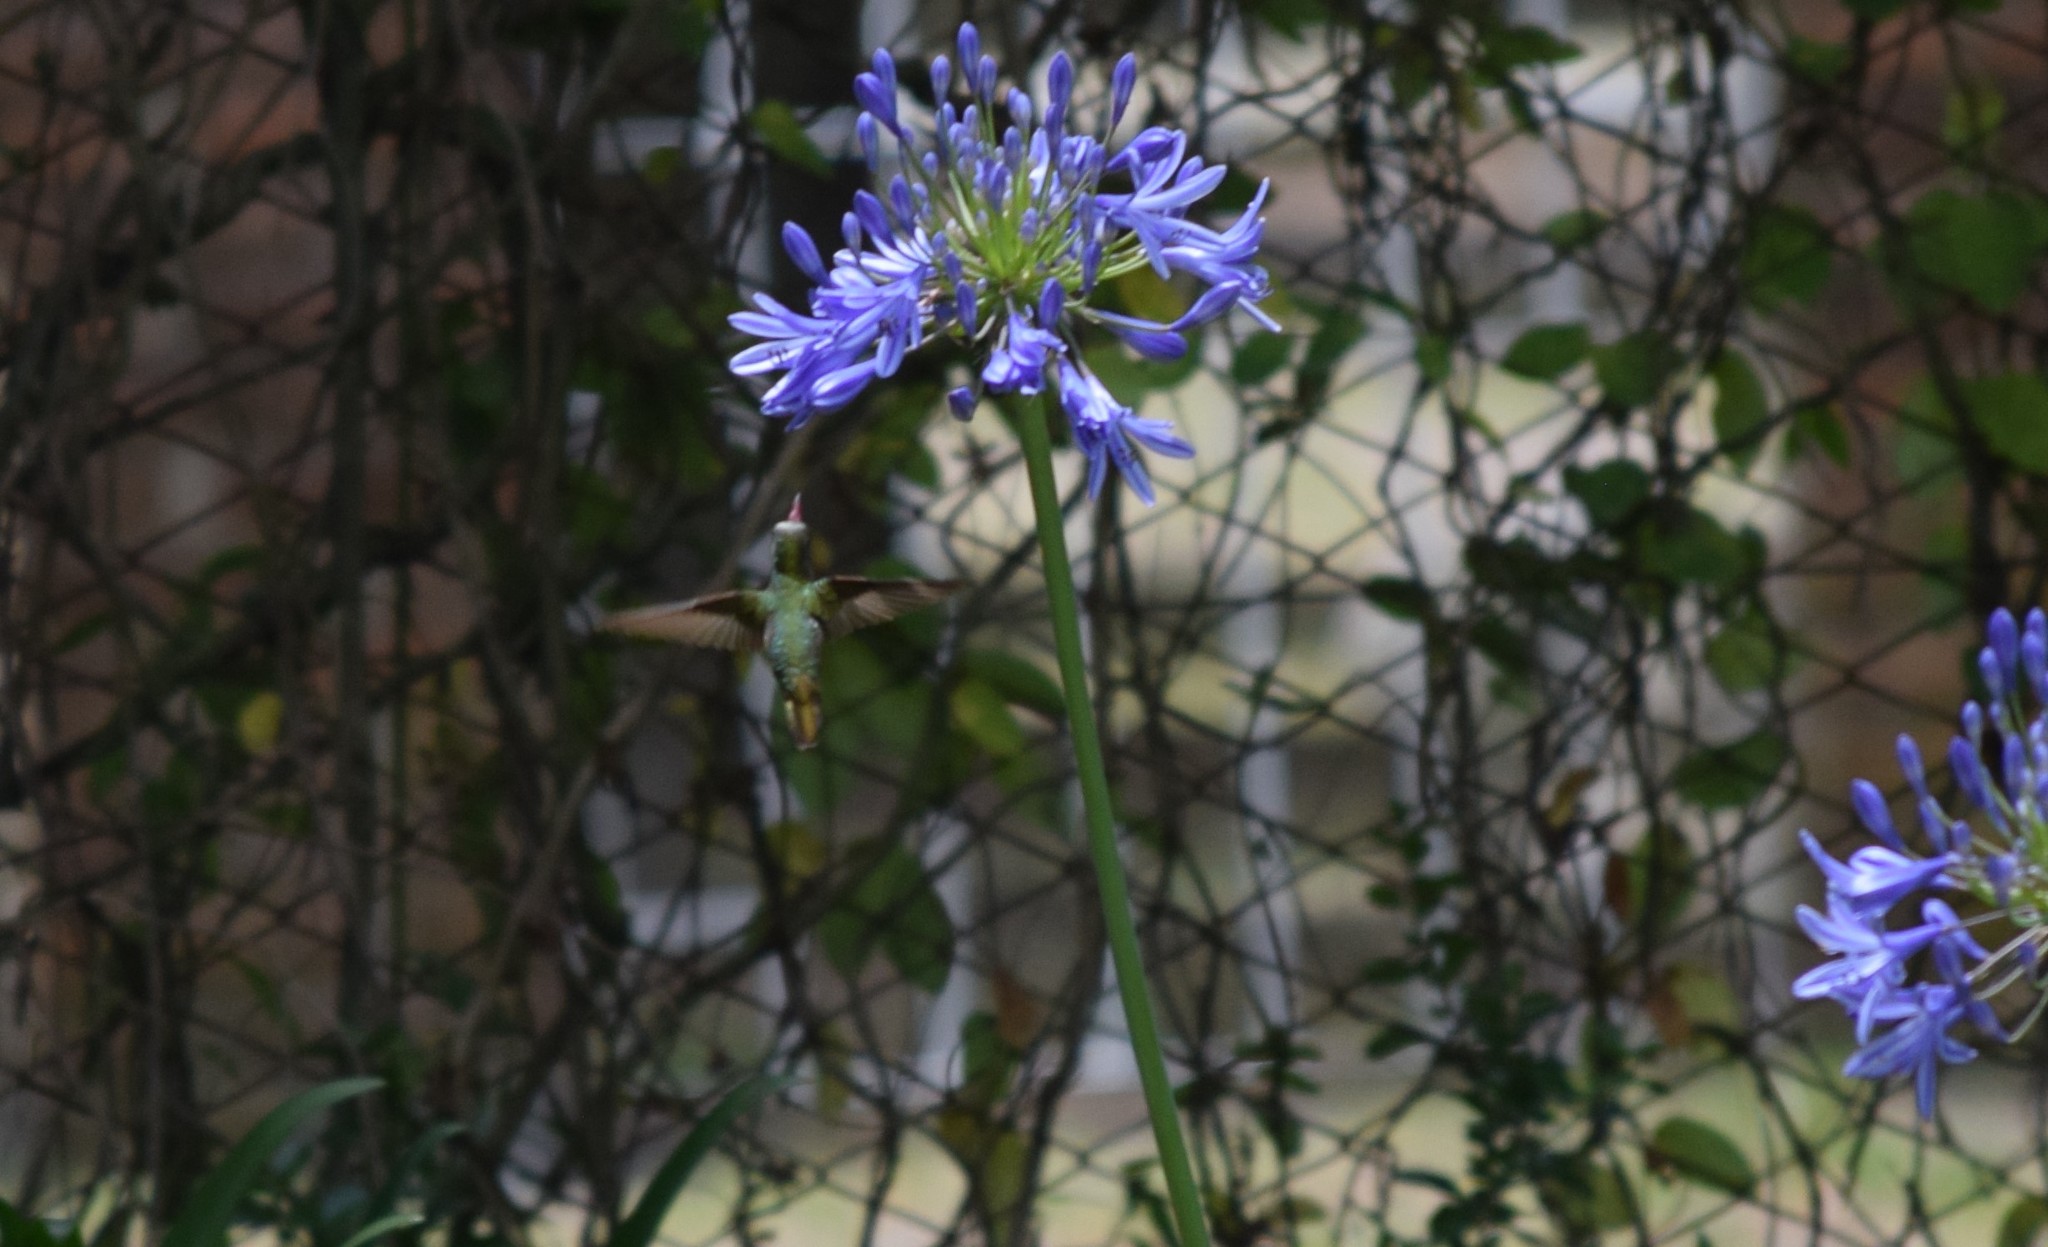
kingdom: Animalia
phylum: Chordata
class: Aves
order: Apodiformes
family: Trochilidae
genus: Hylocharis
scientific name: Hylocharis chrysura
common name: Gilded sapphire
